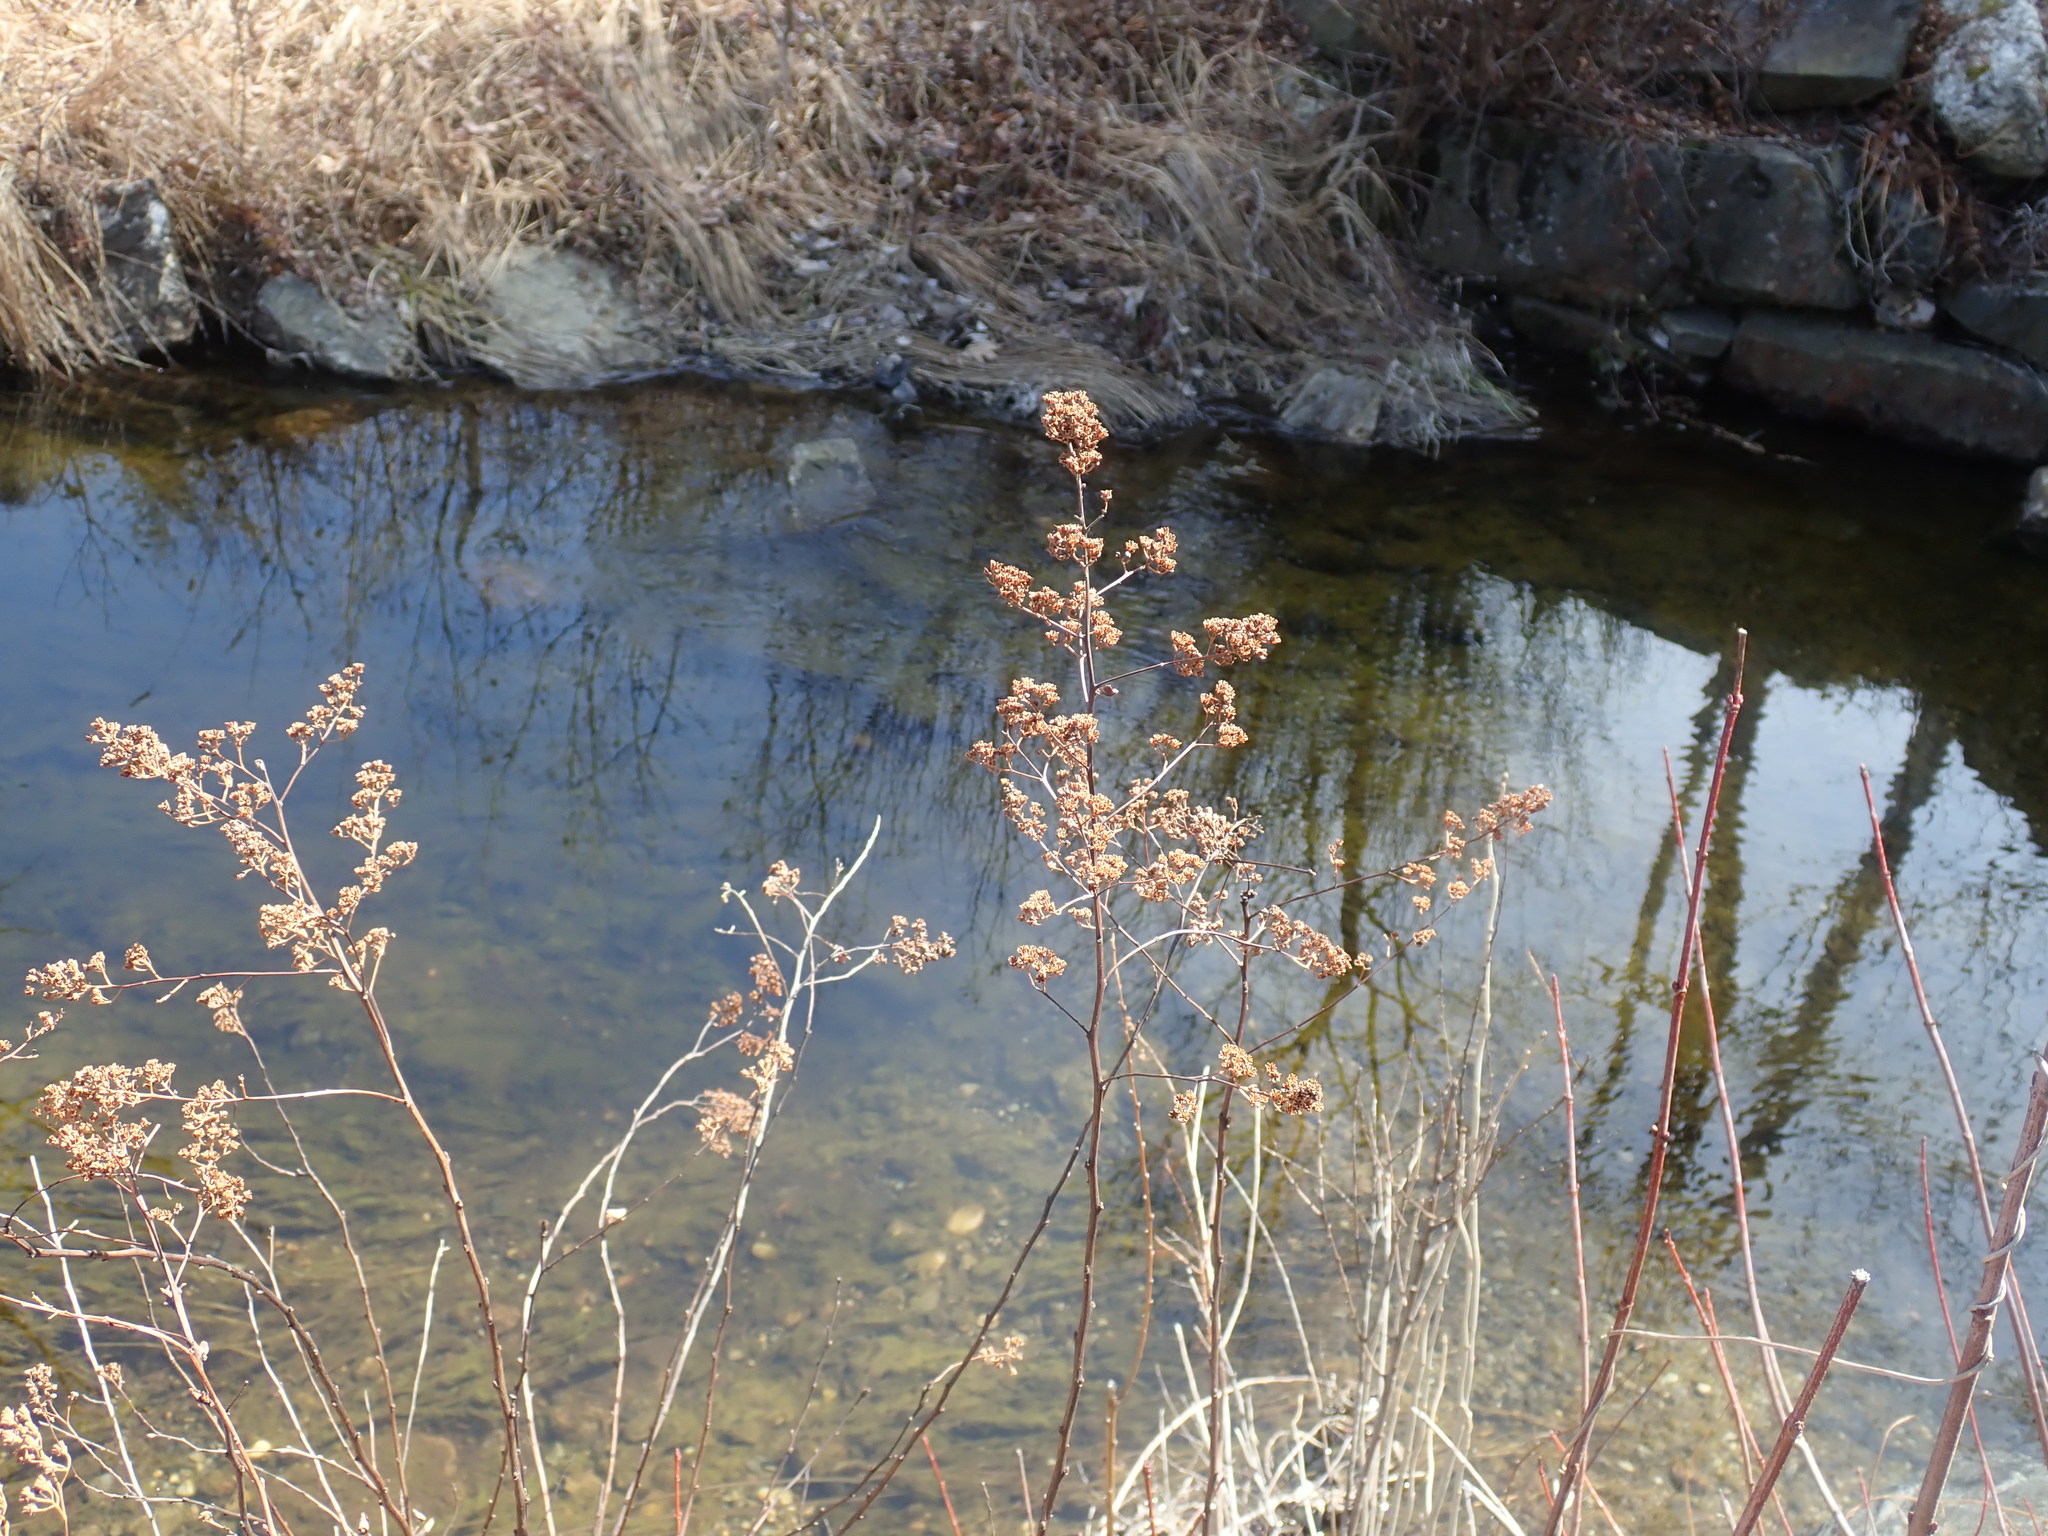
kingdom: Plantae
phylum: Tracheophyta
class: Magnoliopsida
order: Rosales
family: Rosaceae
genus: Spiraea
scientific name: Spiraea alba
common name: Pale bridewort
